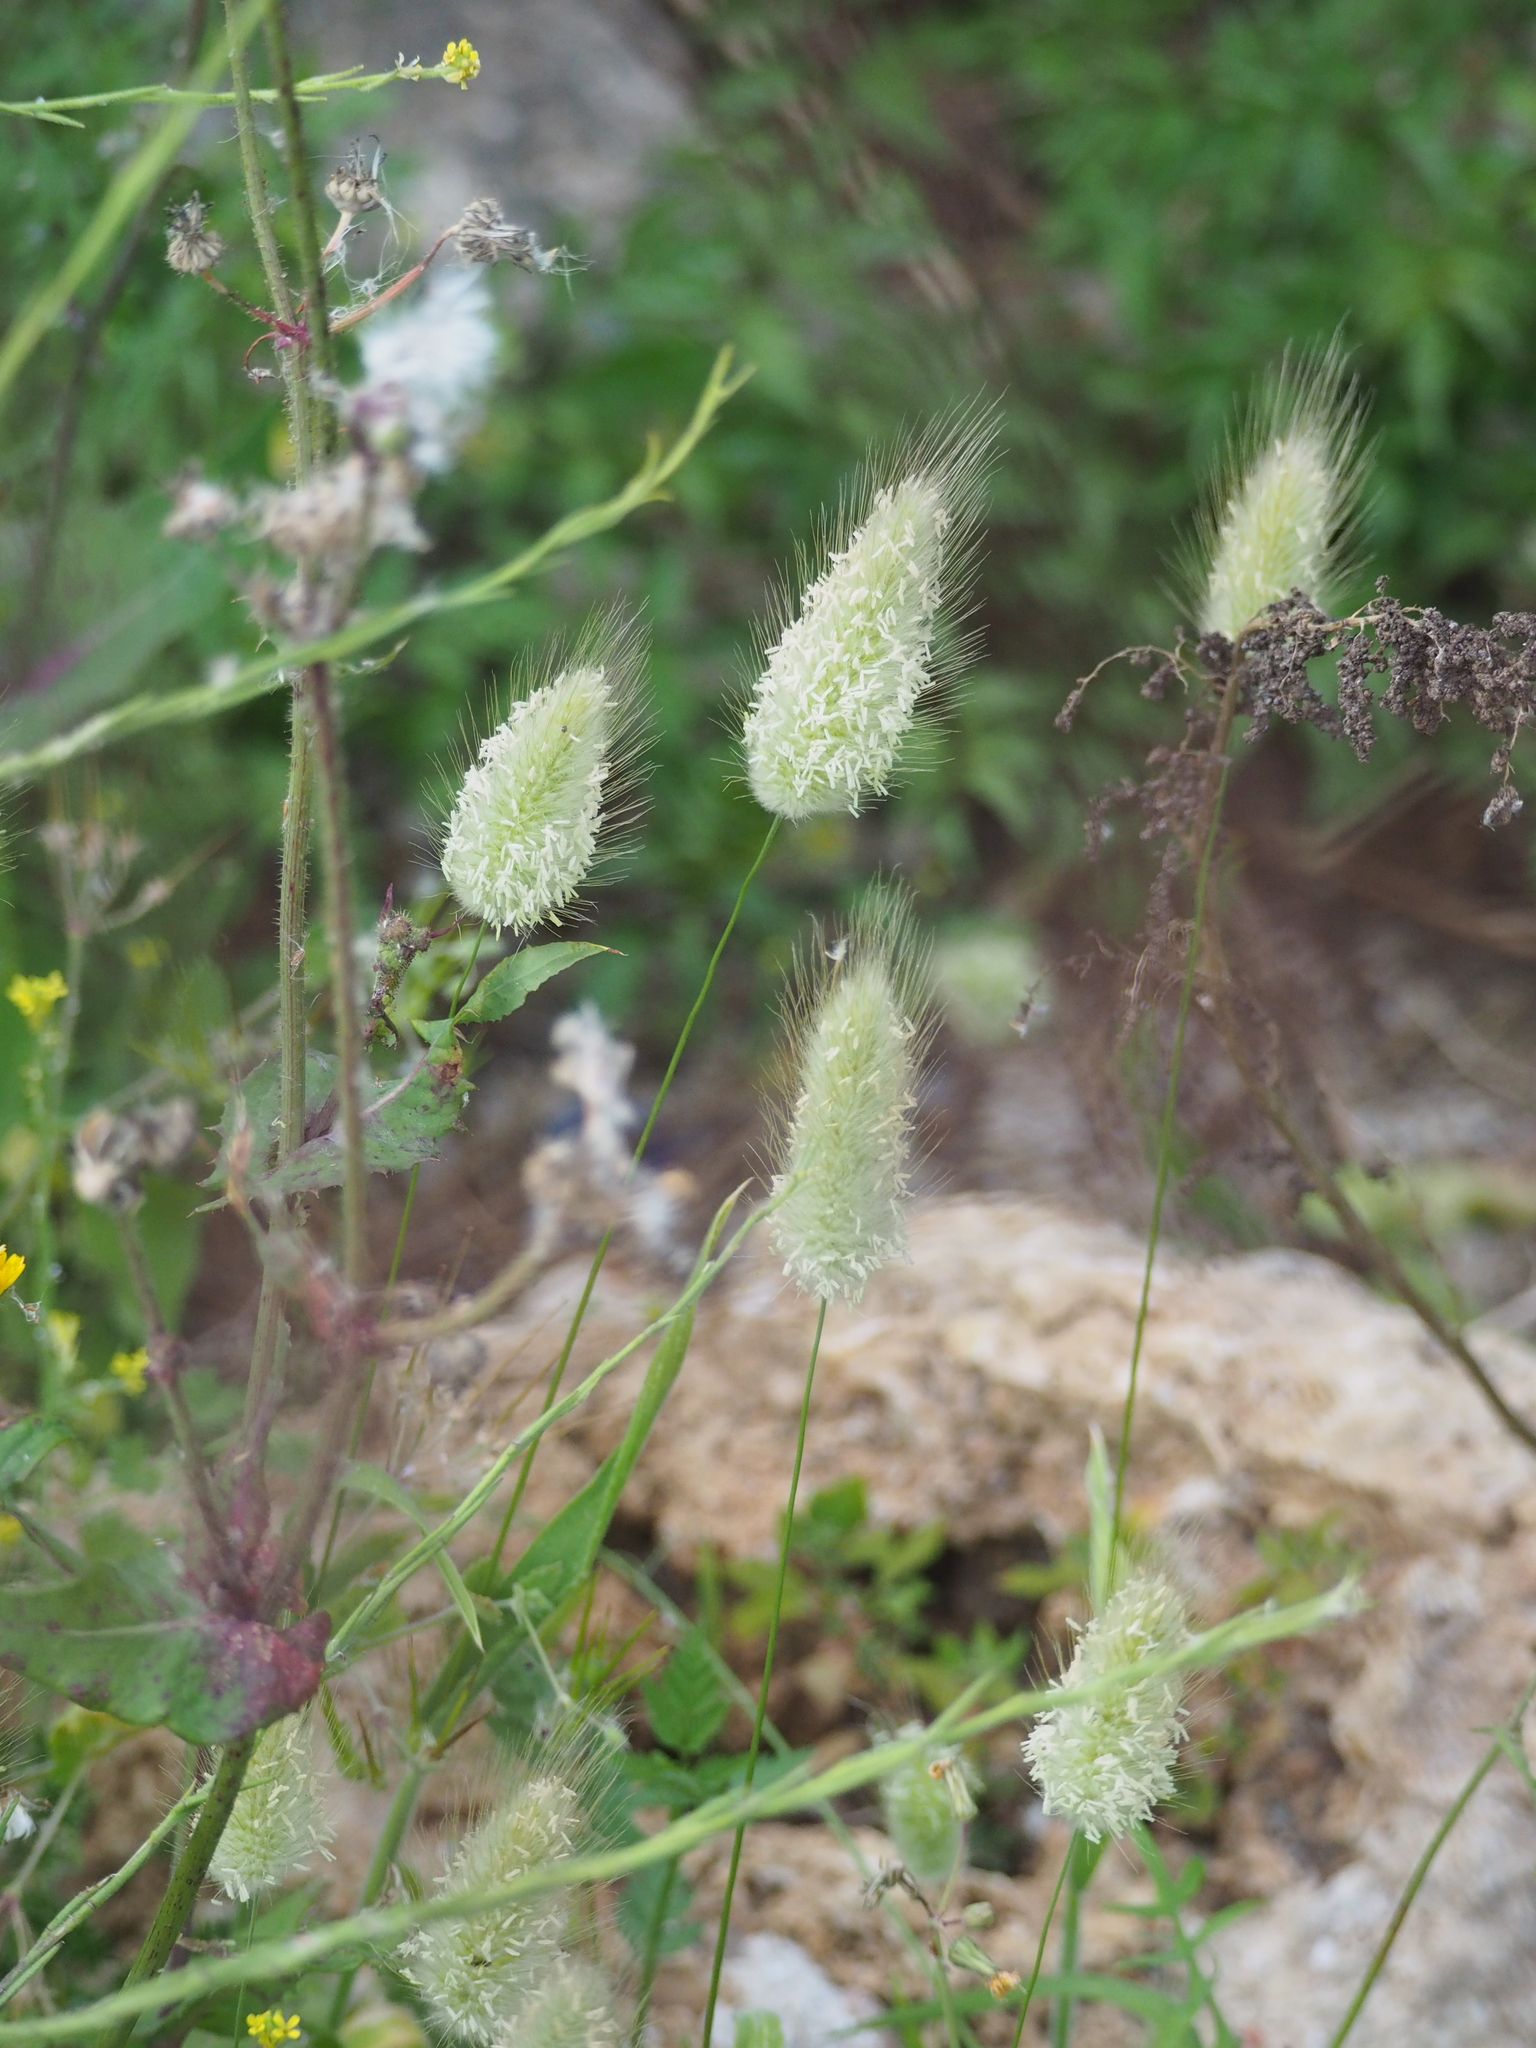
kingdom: Plantae
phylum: Tracheophyta
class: Liliopsida
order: Poales
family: Poaceae
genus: Lagurus
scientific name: Lagurus ovatus
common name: Hare's-tail
